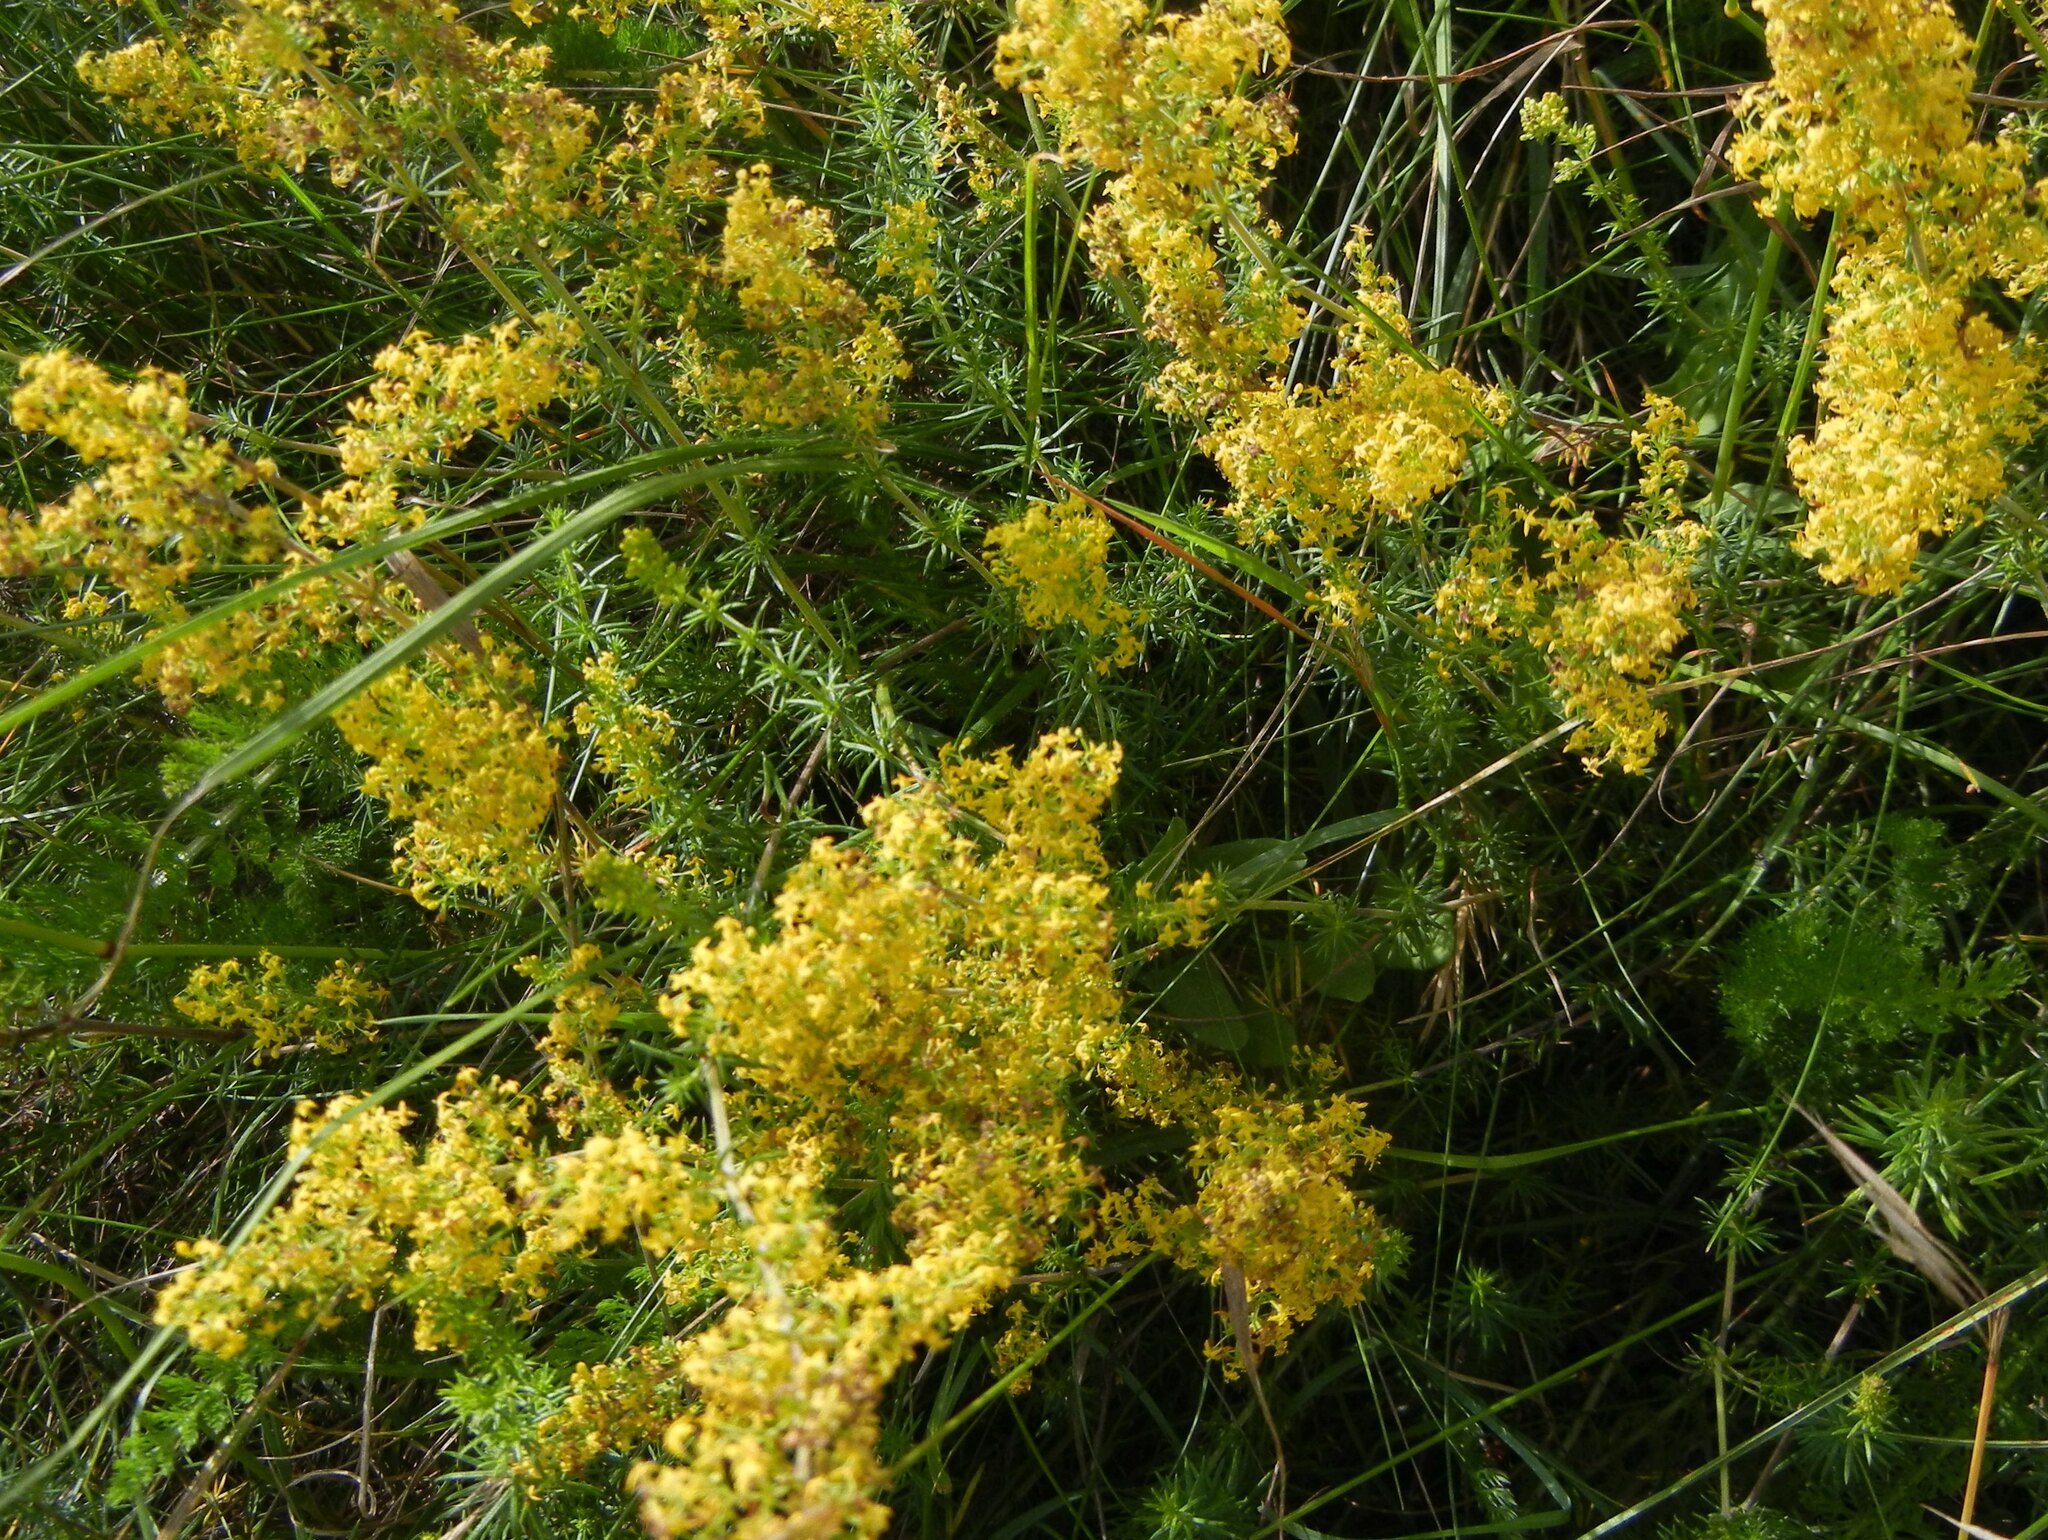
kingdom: Plantae
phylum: Tracheophyta
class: Magnoliopsida
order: Gentianales
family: Rubiaceae
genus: Galium
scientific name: Galium verum
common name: Lady's bedstraw
